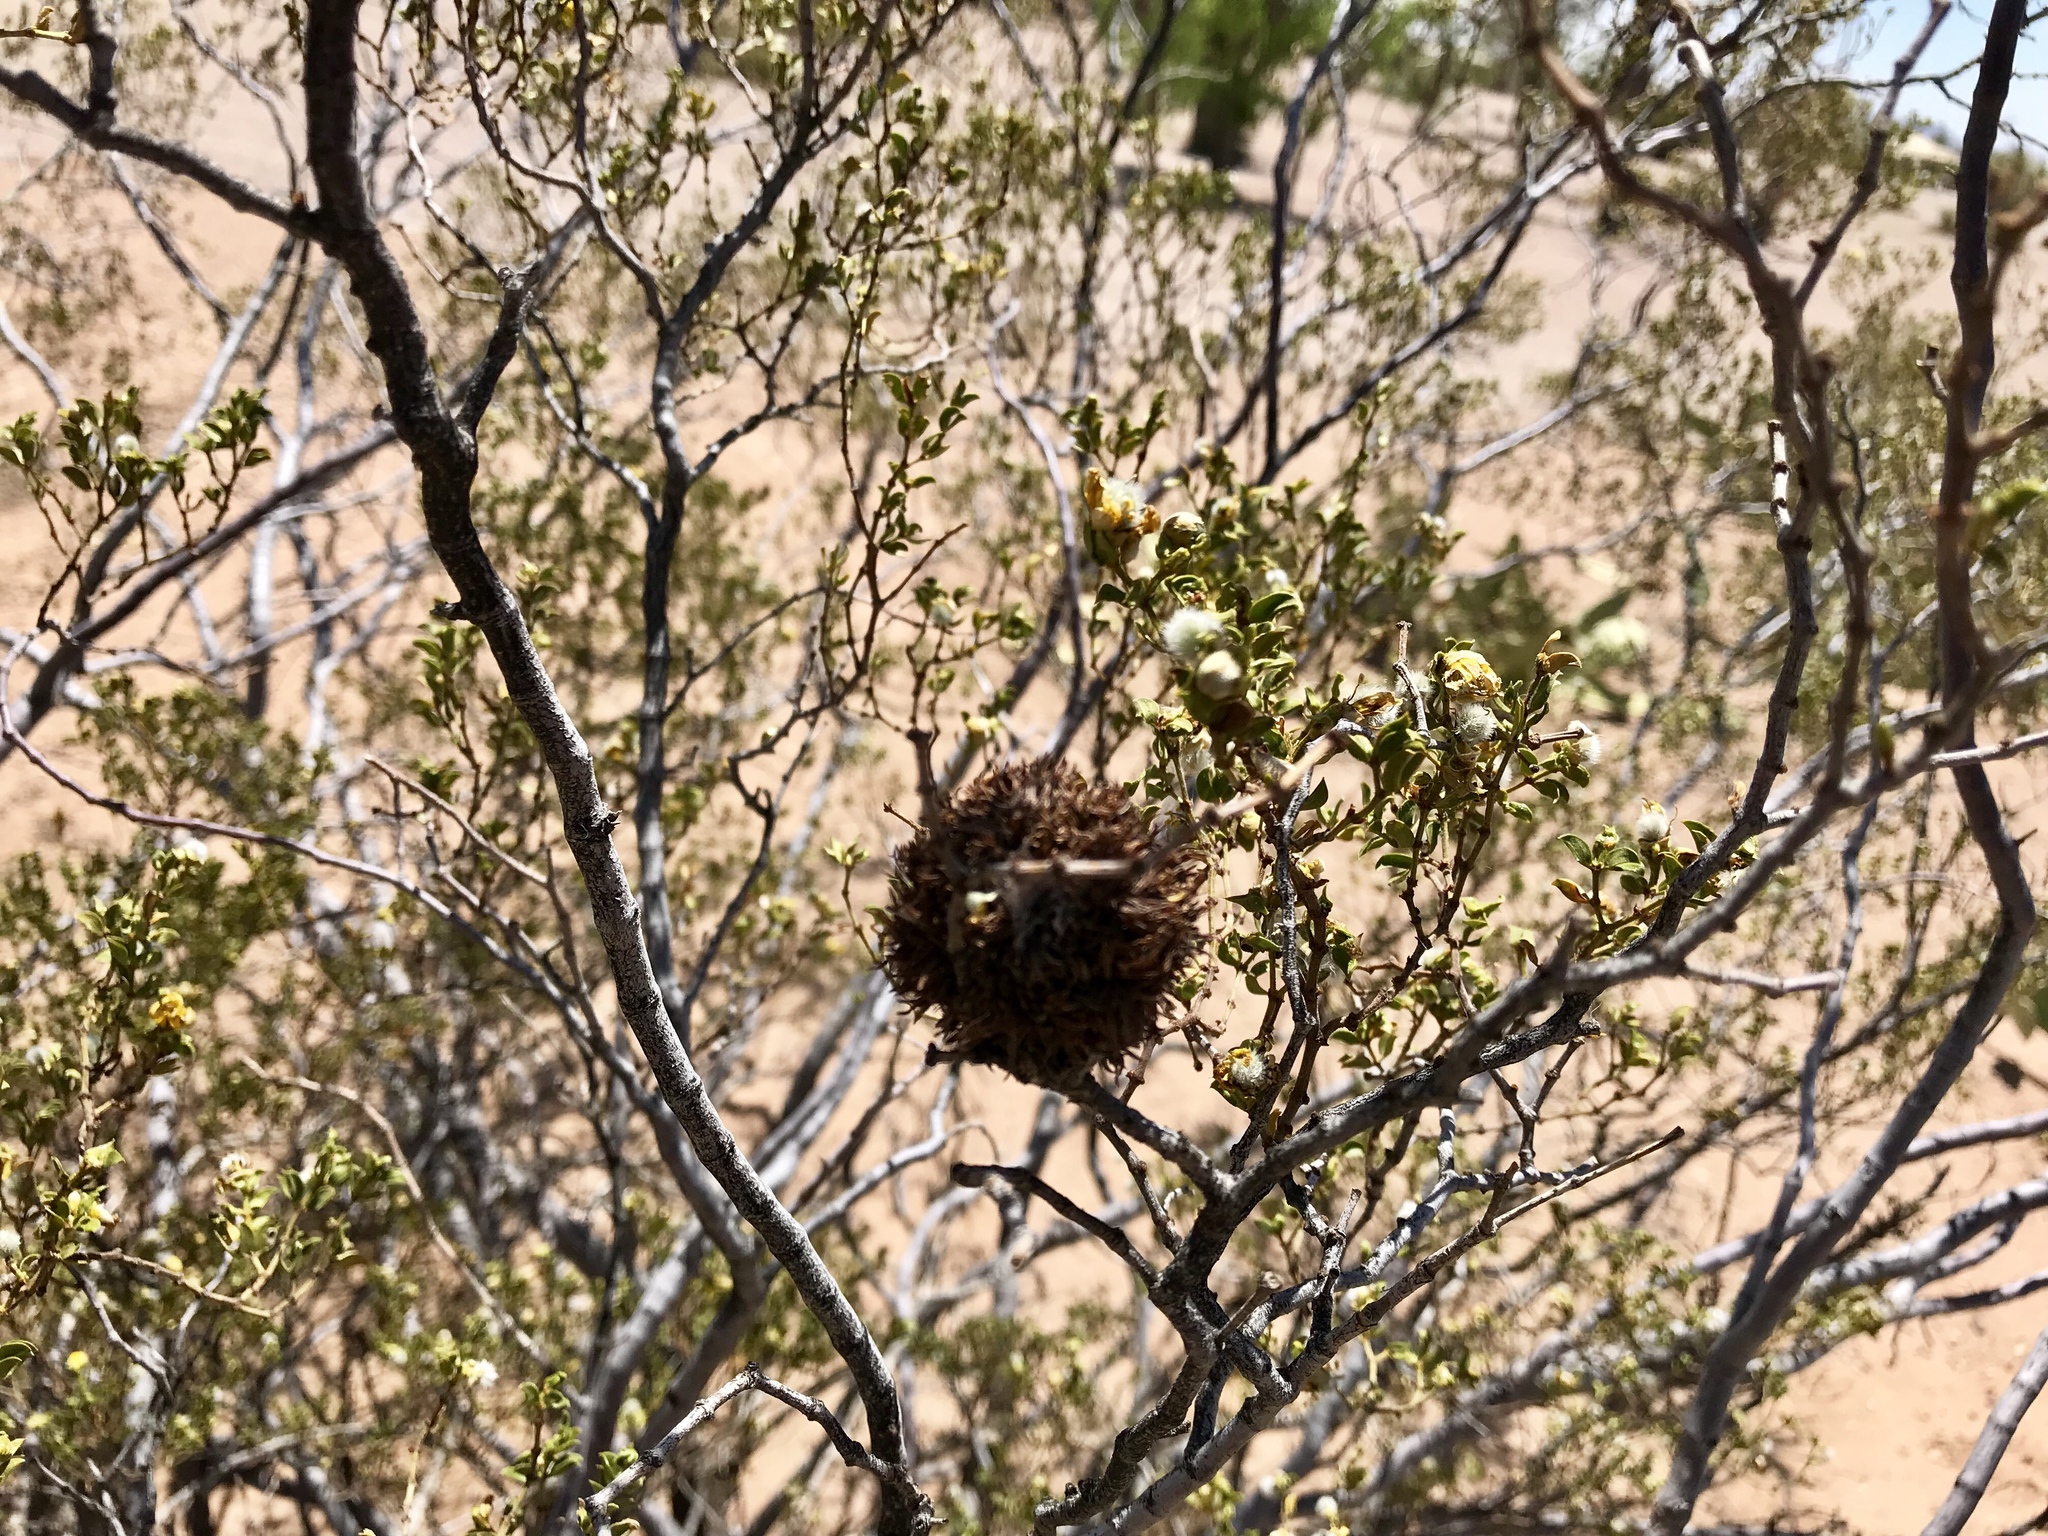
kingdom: Animalia
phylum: Arthropoda
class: Insecta
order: Diptera
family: Cecidomyiidae
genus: Asphondylia
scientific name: Asphondylia auripila
